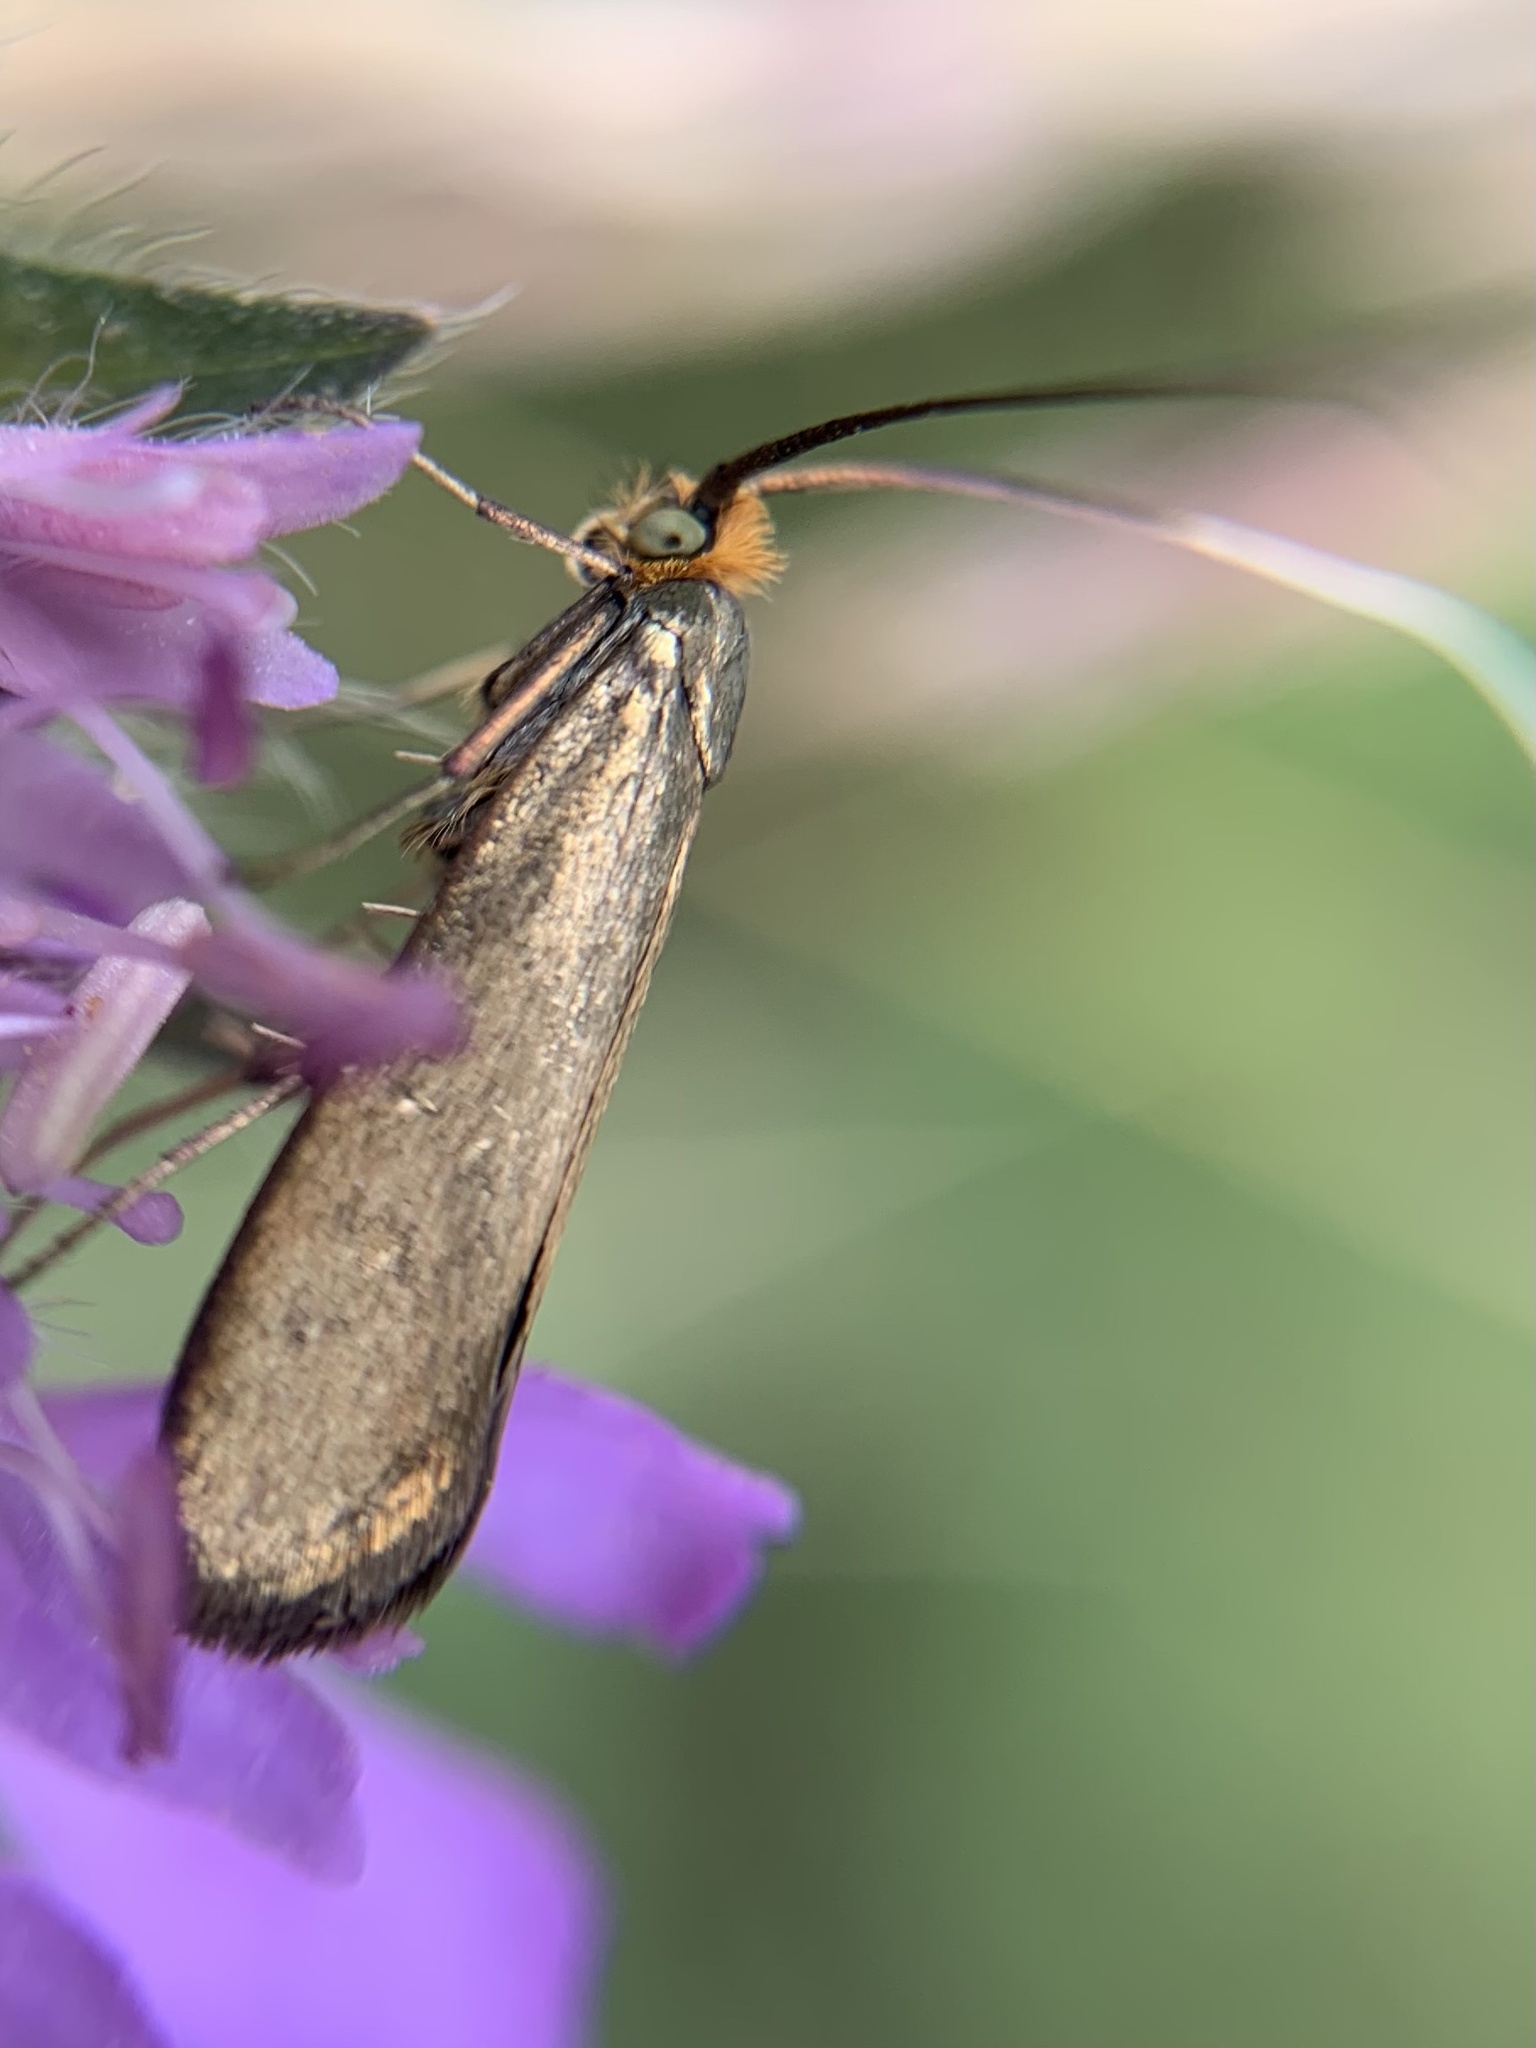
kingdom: Animalia
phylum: Arthropoda
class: Insecta
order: Lepidoptera
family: Adelidae
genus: Nemophora
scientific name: Nemophora metallica
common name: Brassy long-horn
